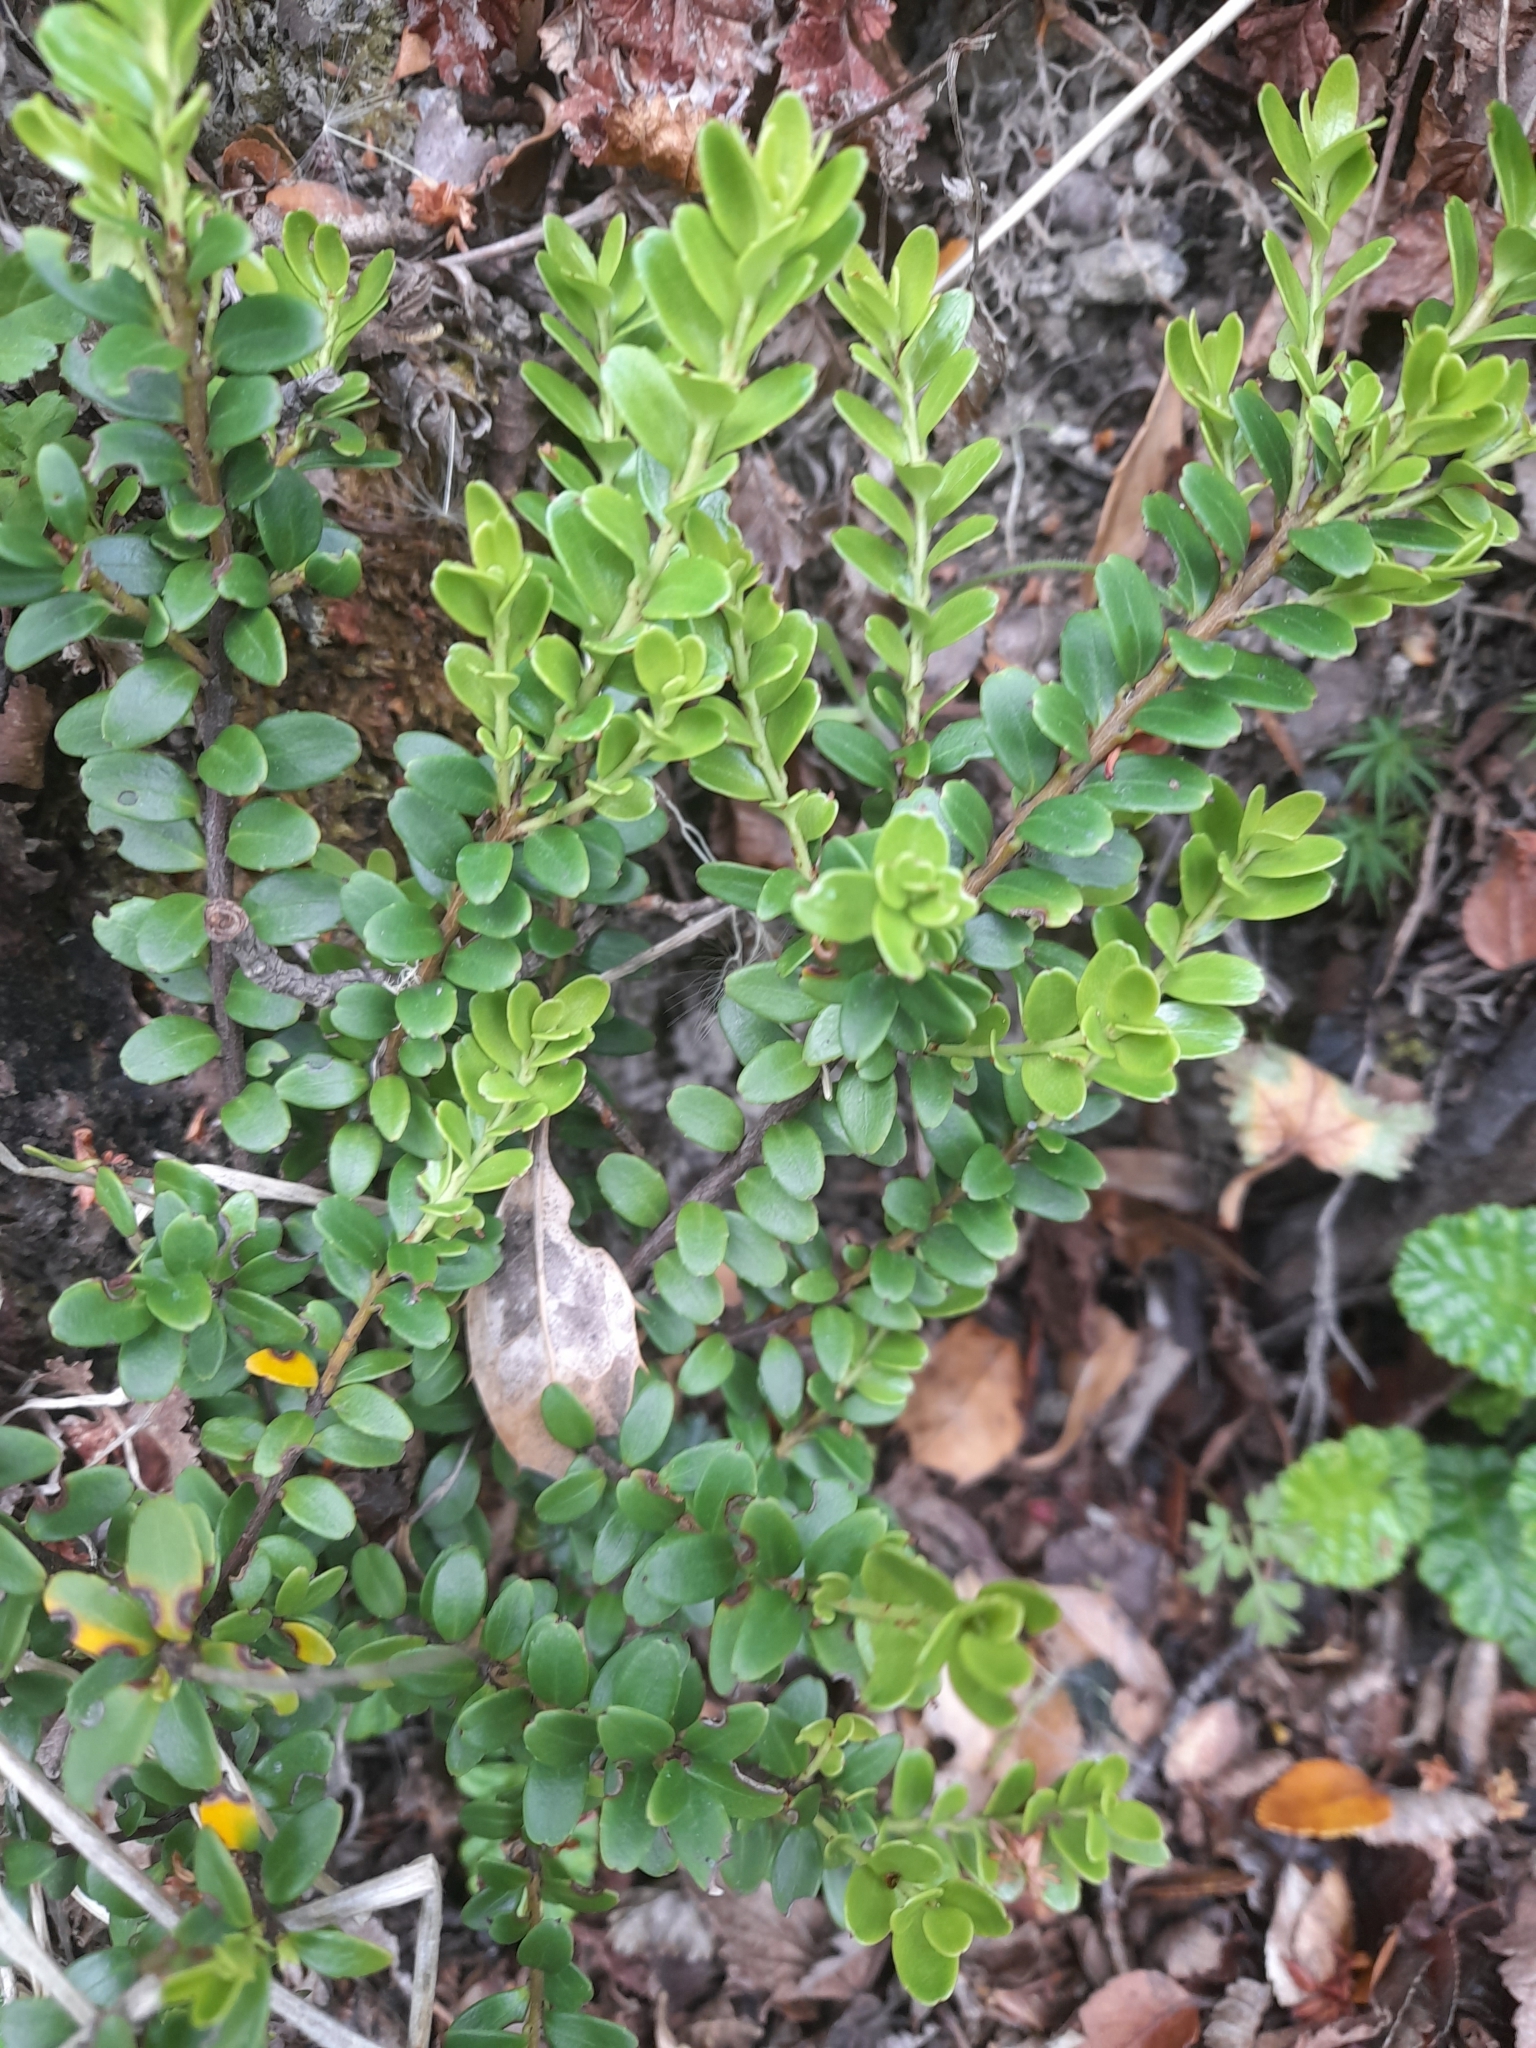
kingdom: Plantae
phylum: Tracheophyta
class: Magnoliopsida
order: Celastrales
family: Celastraceae
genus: Maytenus
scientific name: Maytenus disticha
